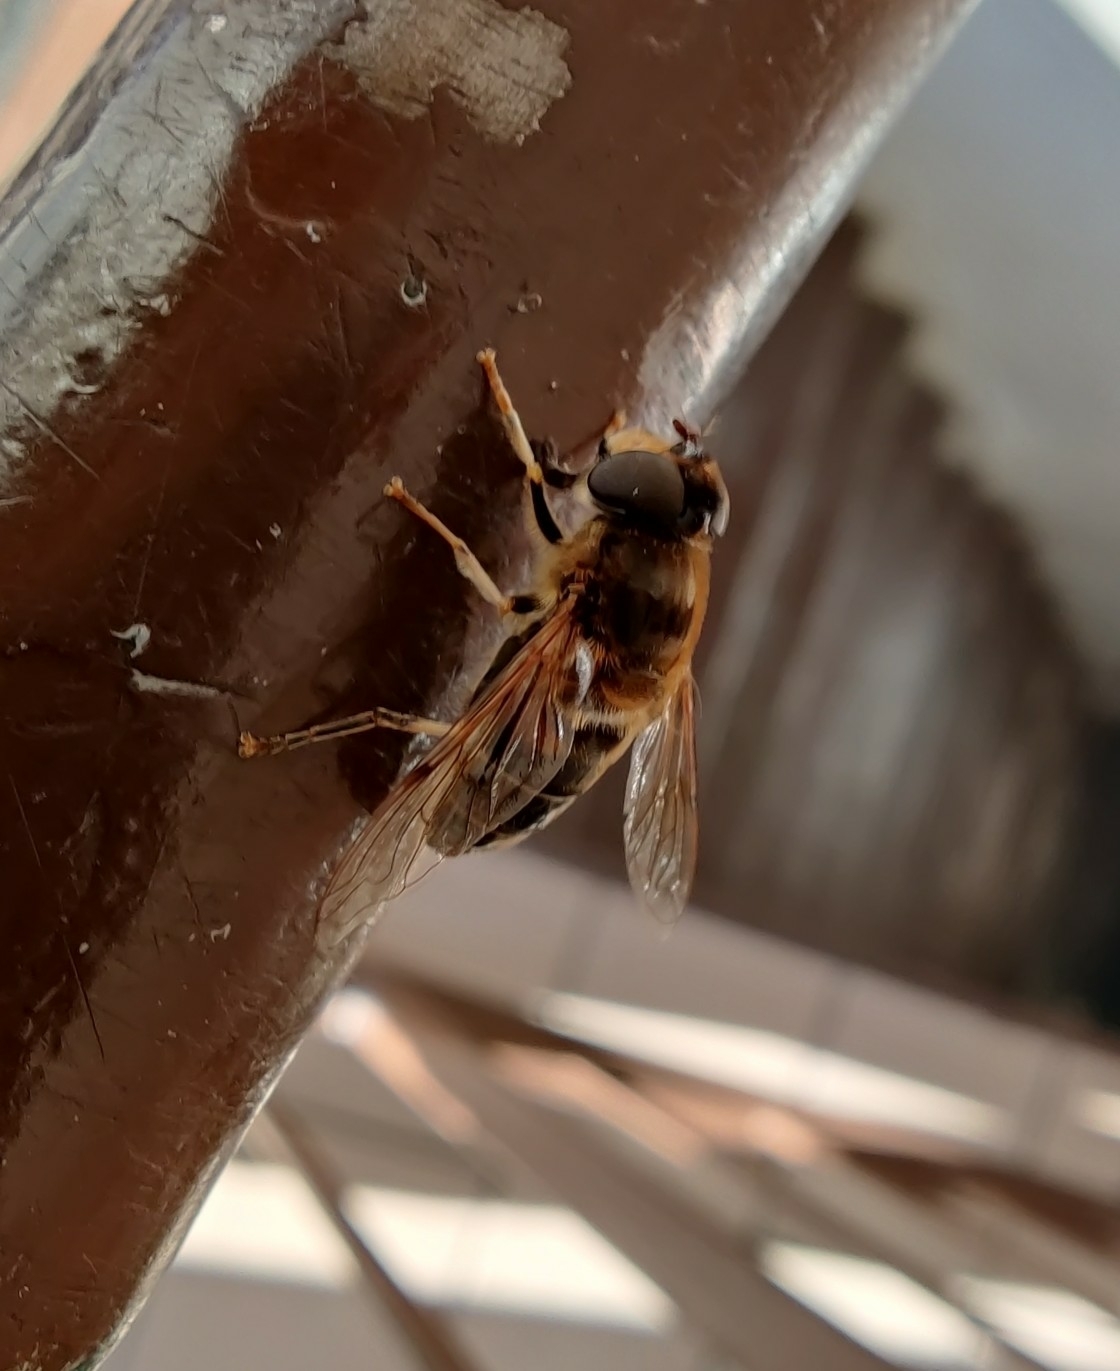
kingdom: Animalia
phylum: Arthropoda
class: Insecta
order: Diptera
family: Syrphidae
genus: Eristalis
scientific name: Eristalis pertinax
